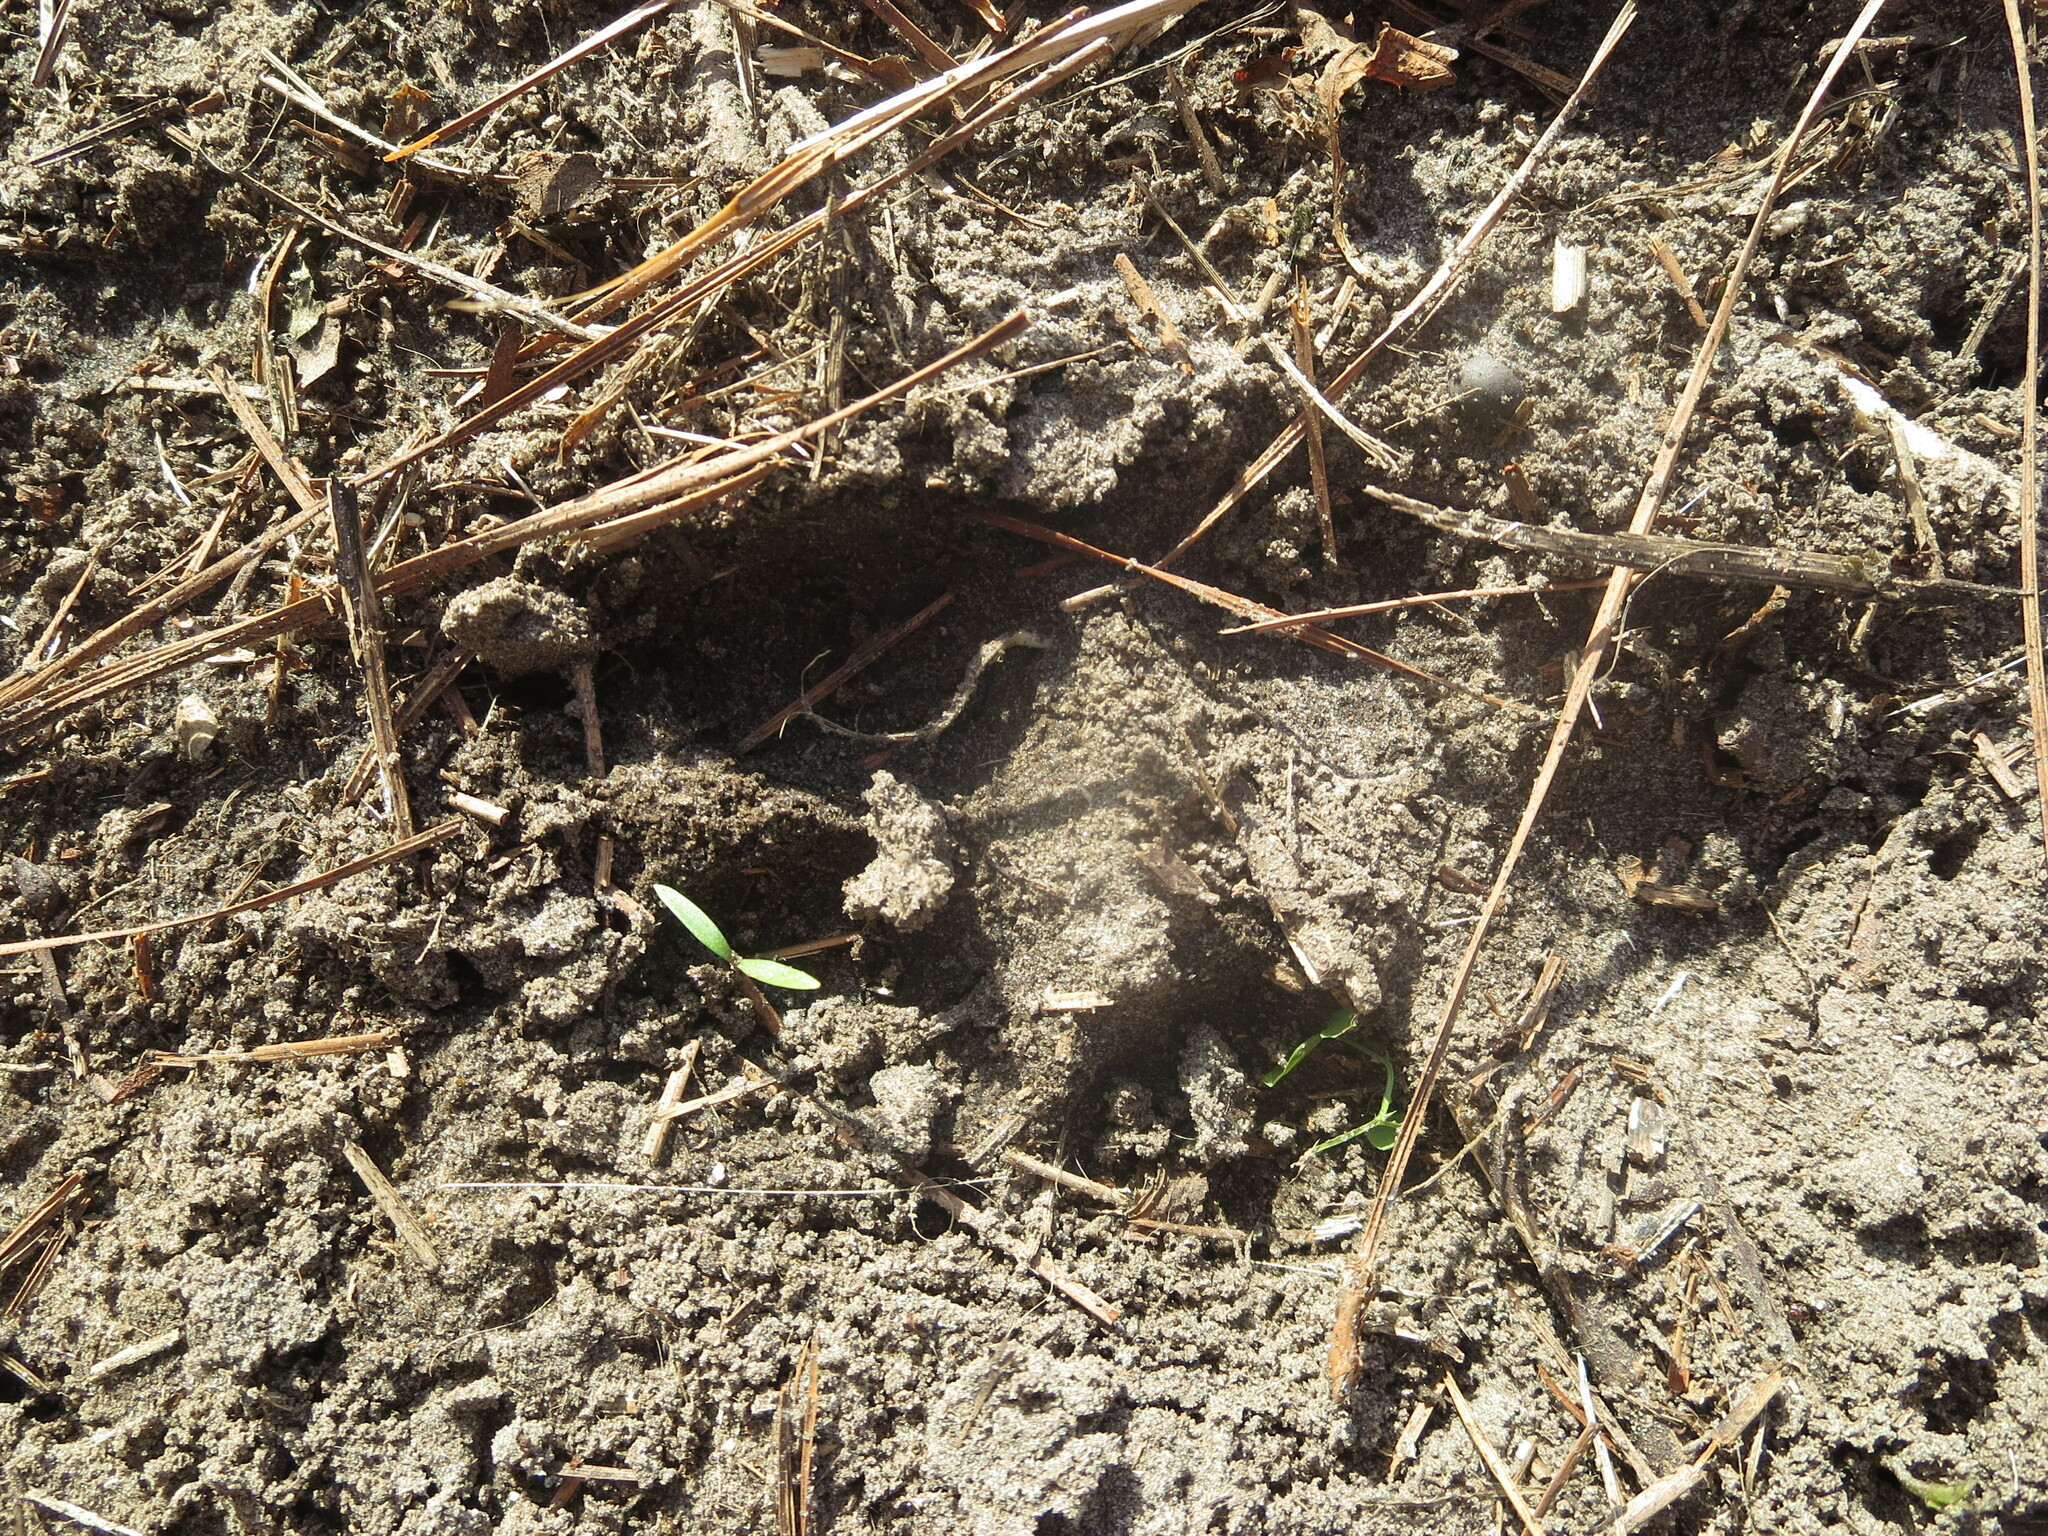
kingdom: Animalia
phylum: Chordata
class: Mammalia
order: Artiodactyla
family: Cervidae
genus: Odocoileus
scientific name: Odocoileus virginianus
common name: White-tailed deer
